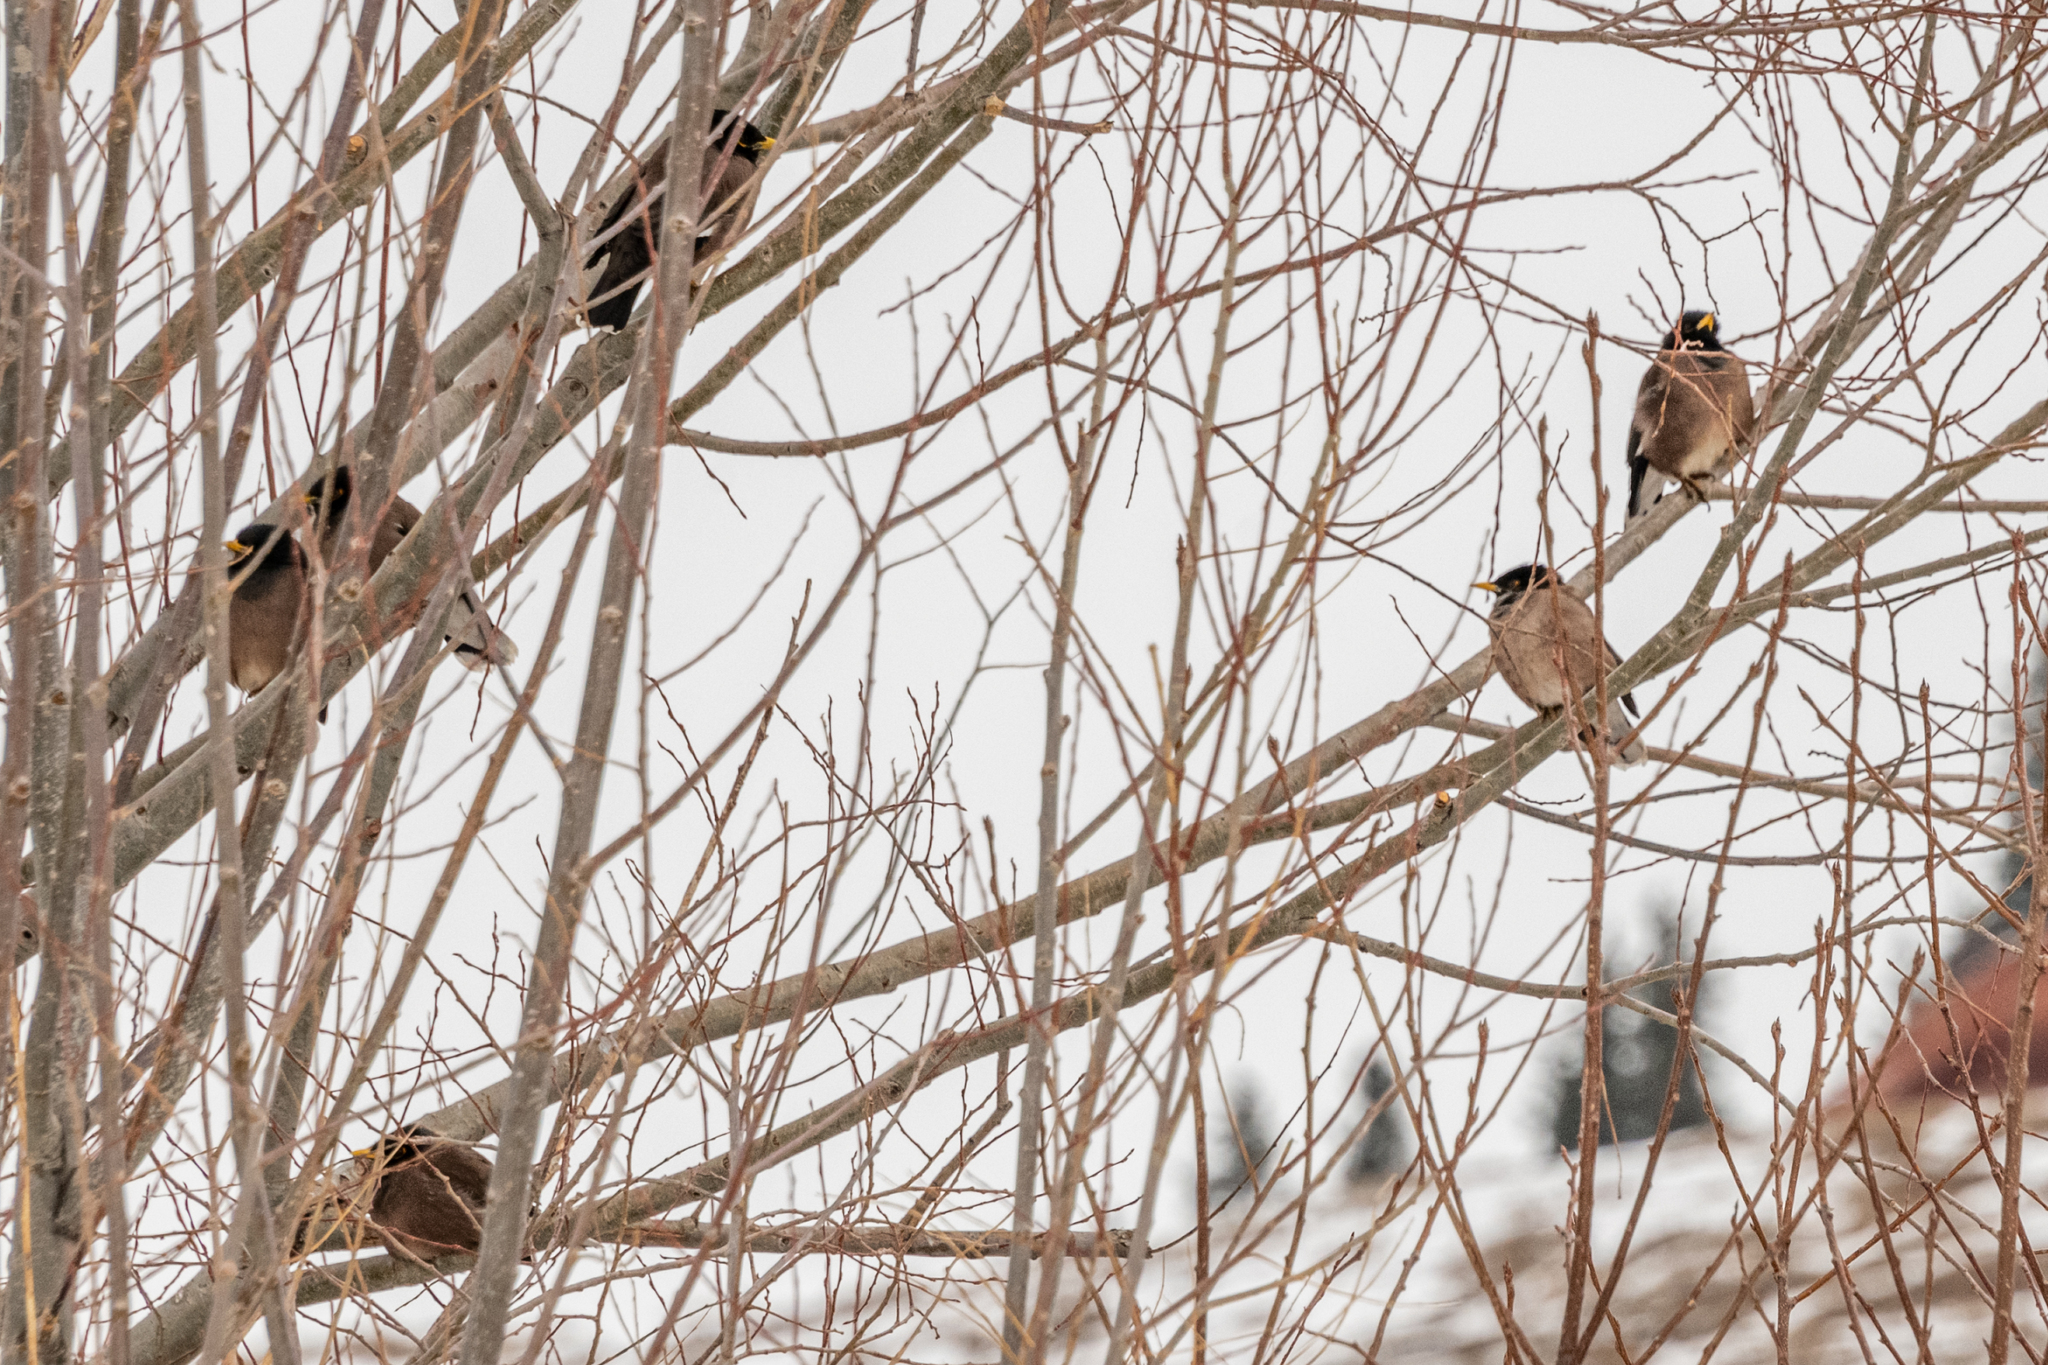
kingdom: Animalia
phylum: Chordata
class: Aves
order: Passeriformes
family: Sturnidae
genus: Acridotheres
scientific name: Acridotheres tristis
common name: Common myna
